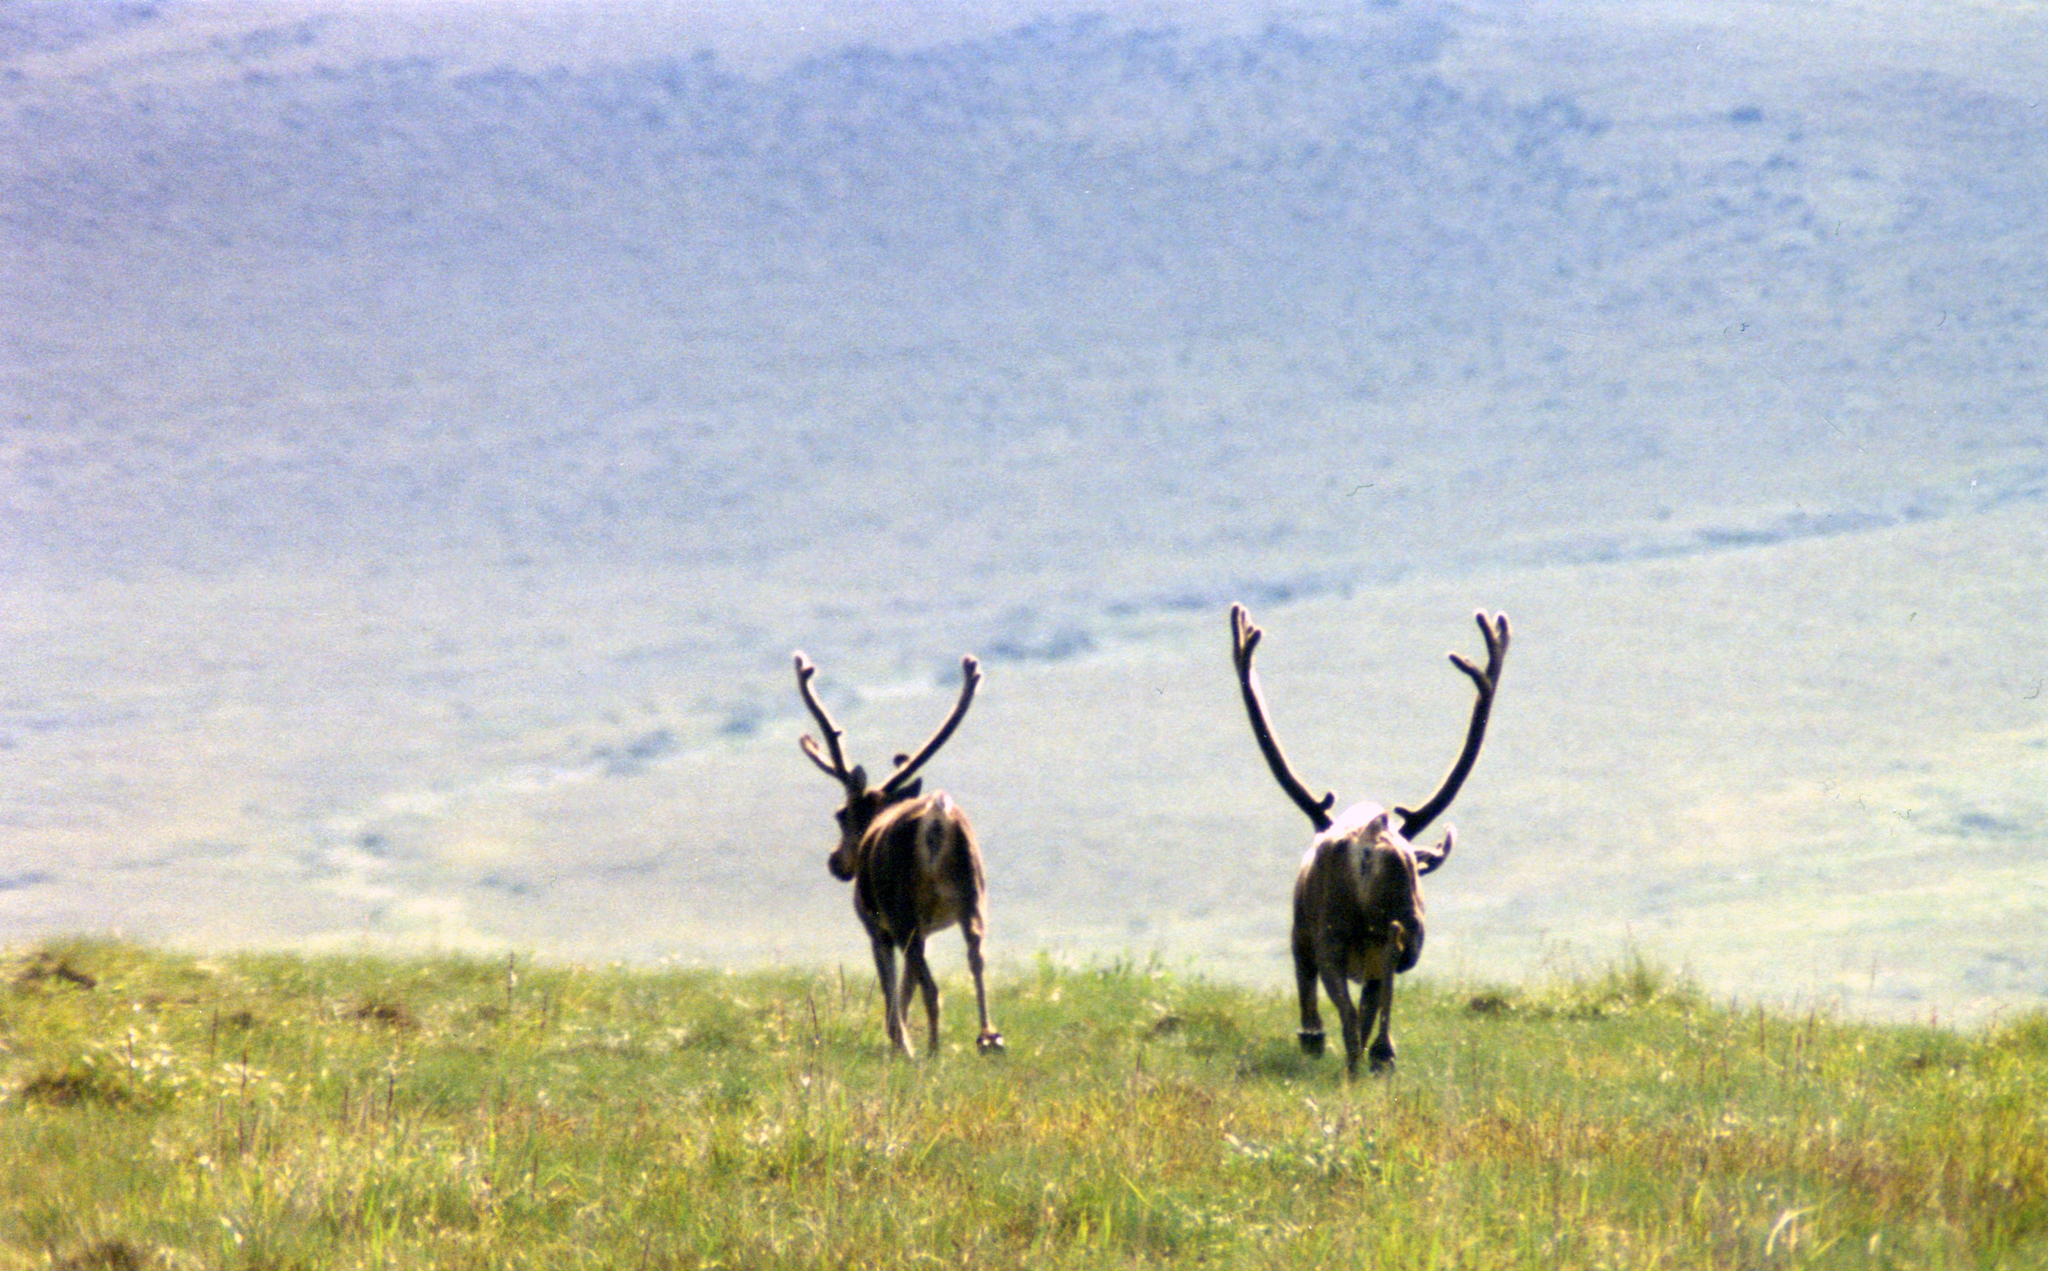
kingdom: Animalia
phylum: Chordata
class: Mammalia
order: Artiodactyla
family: Cervidae
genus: Rangifer
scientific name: Rangifer tarandus
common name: Reindeer
